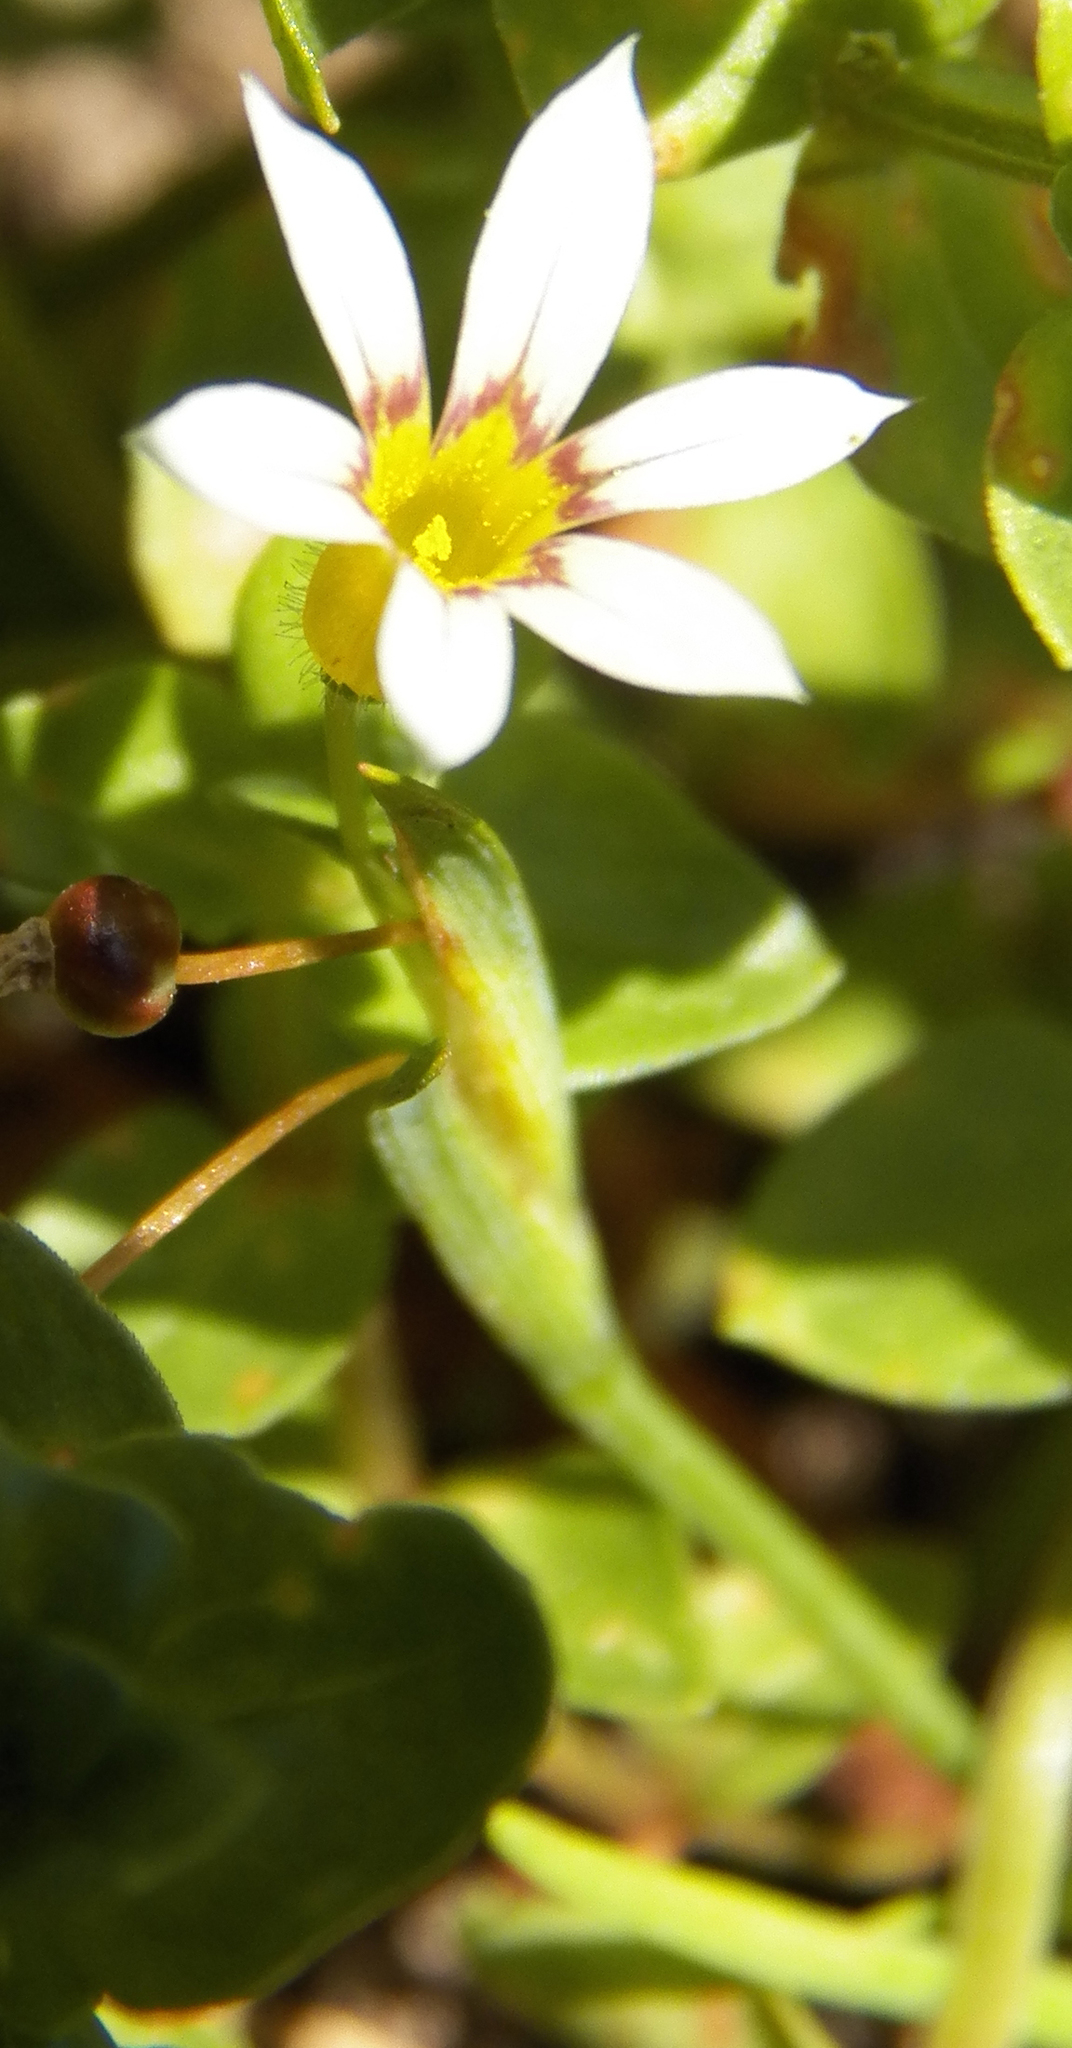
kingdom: Plantae
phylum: Tracheophyta
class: Liliopsida
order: Asparagales
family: Iridaceae
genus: Sisyrinchium
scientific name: Sisyrinchium micranthum
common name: Bermuda pigroot
